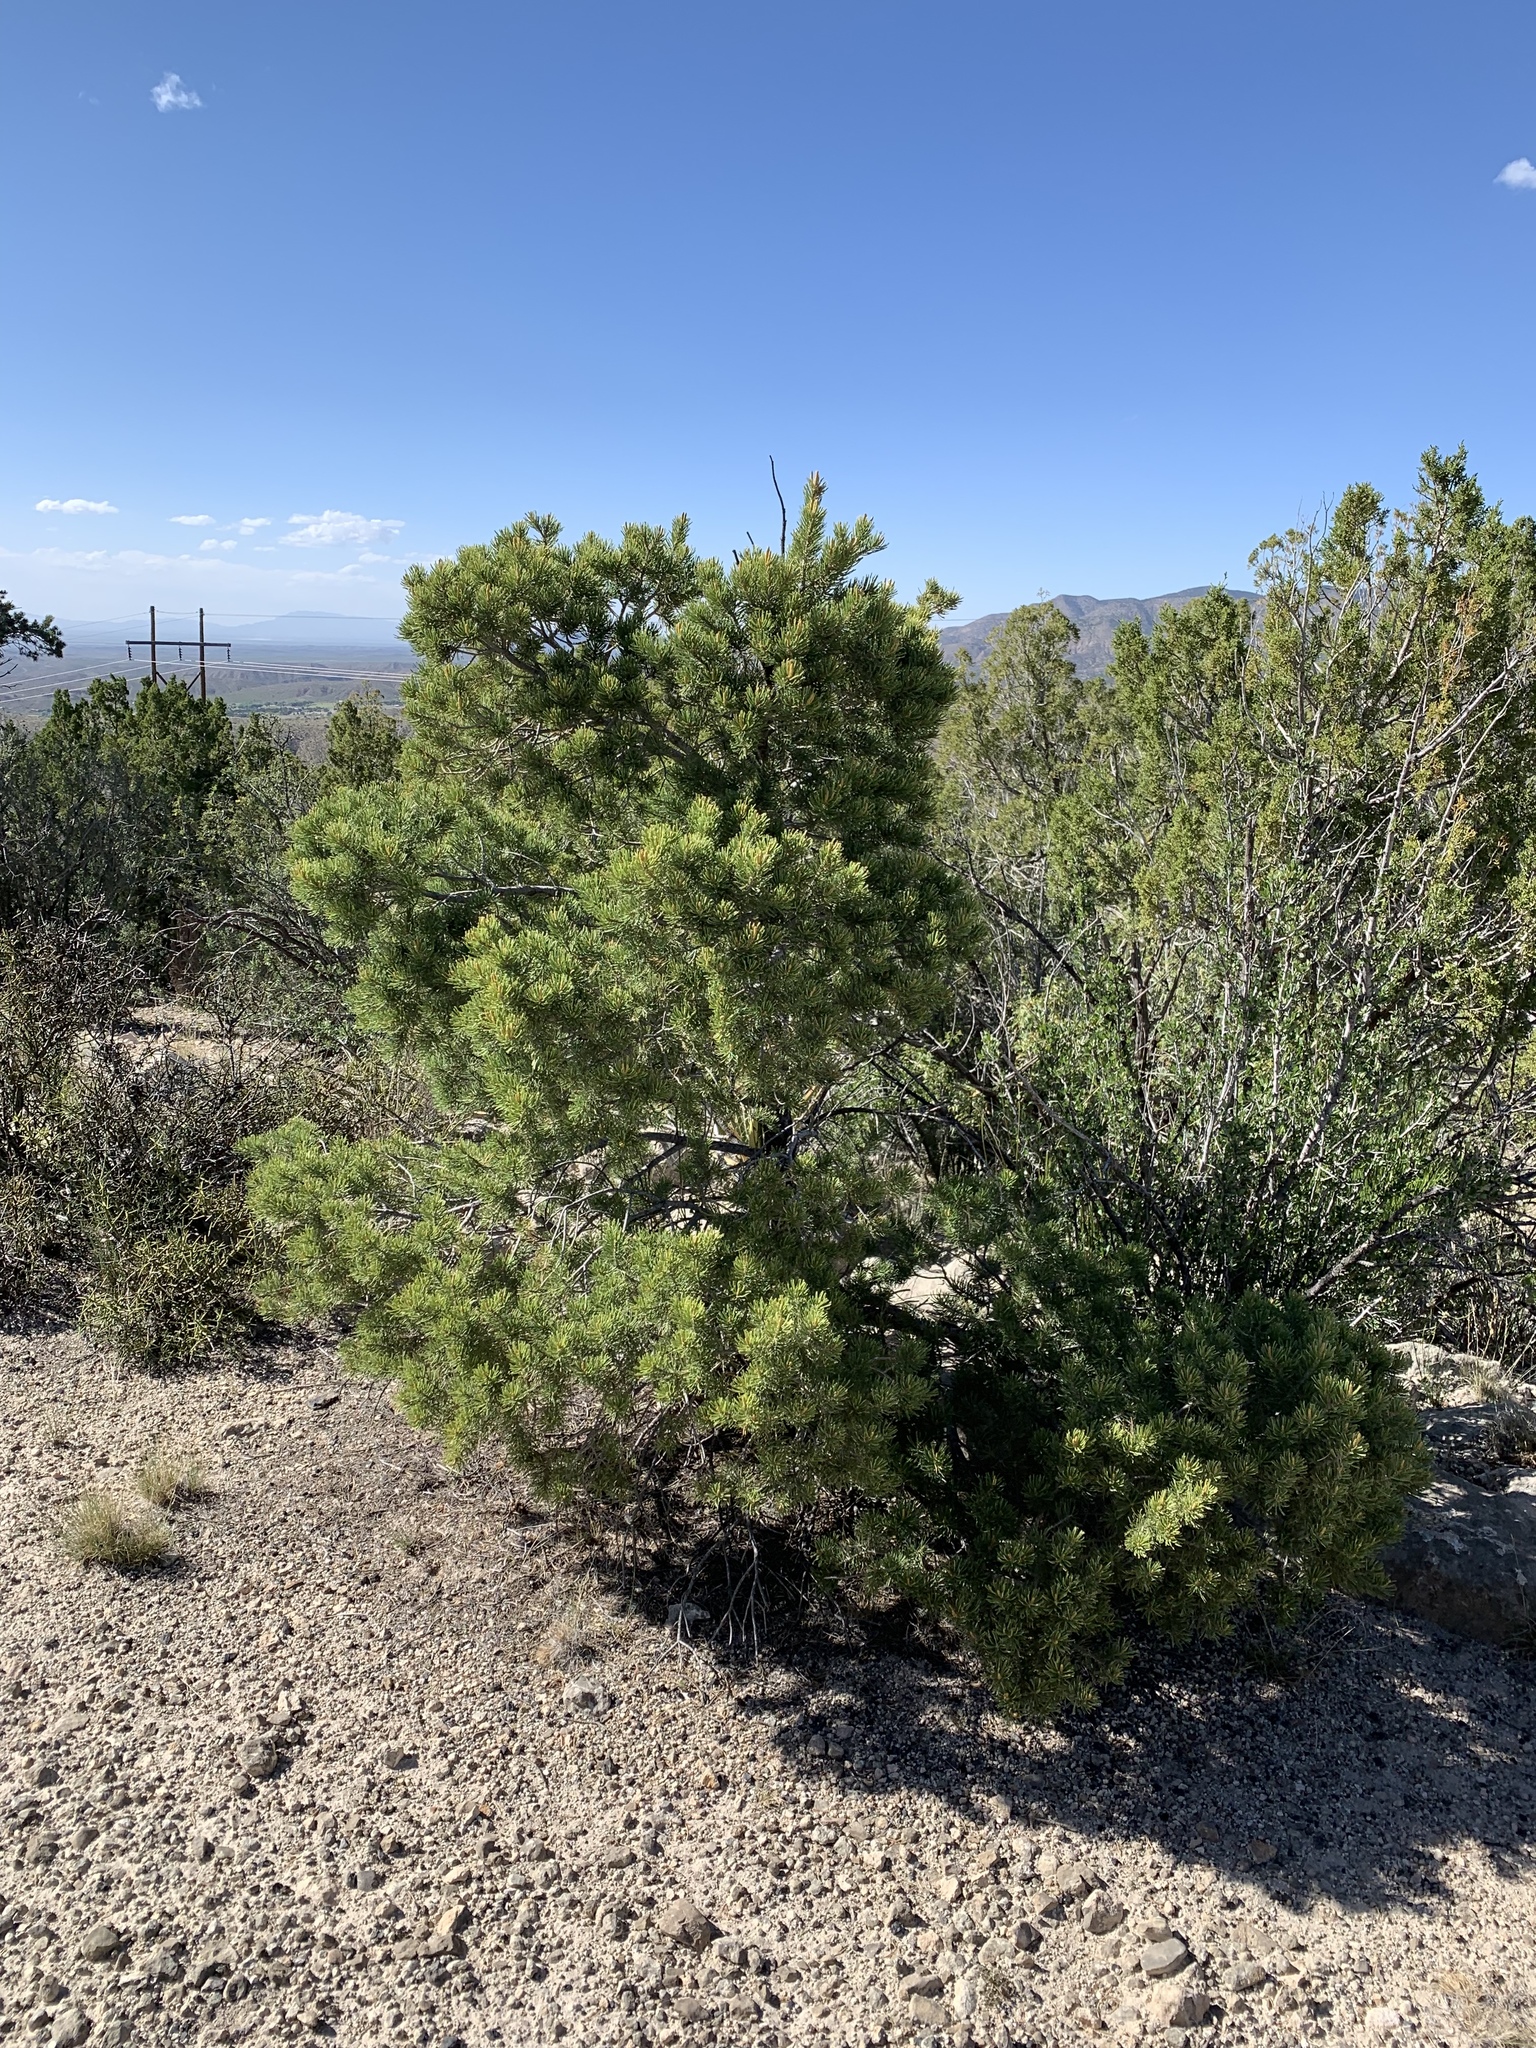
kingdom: Plantae
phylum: Tracheophyta
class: Pinopsida
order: Pinales
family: Pinaceae
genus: Pinus
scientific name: Pinus edulis
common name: Colorado pinyon
